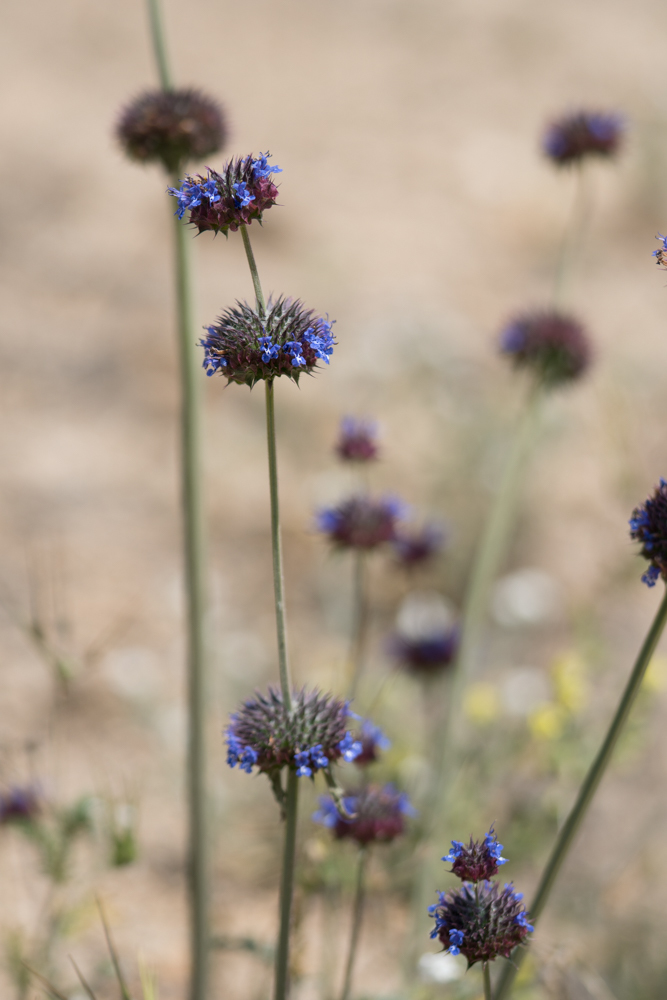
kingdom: Plantae
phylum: Tracheophyta
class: Magnoliopsida
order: Lamiales
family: Lamiaceae
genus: Salvia
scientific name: Salvia columbariae
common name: Chia
